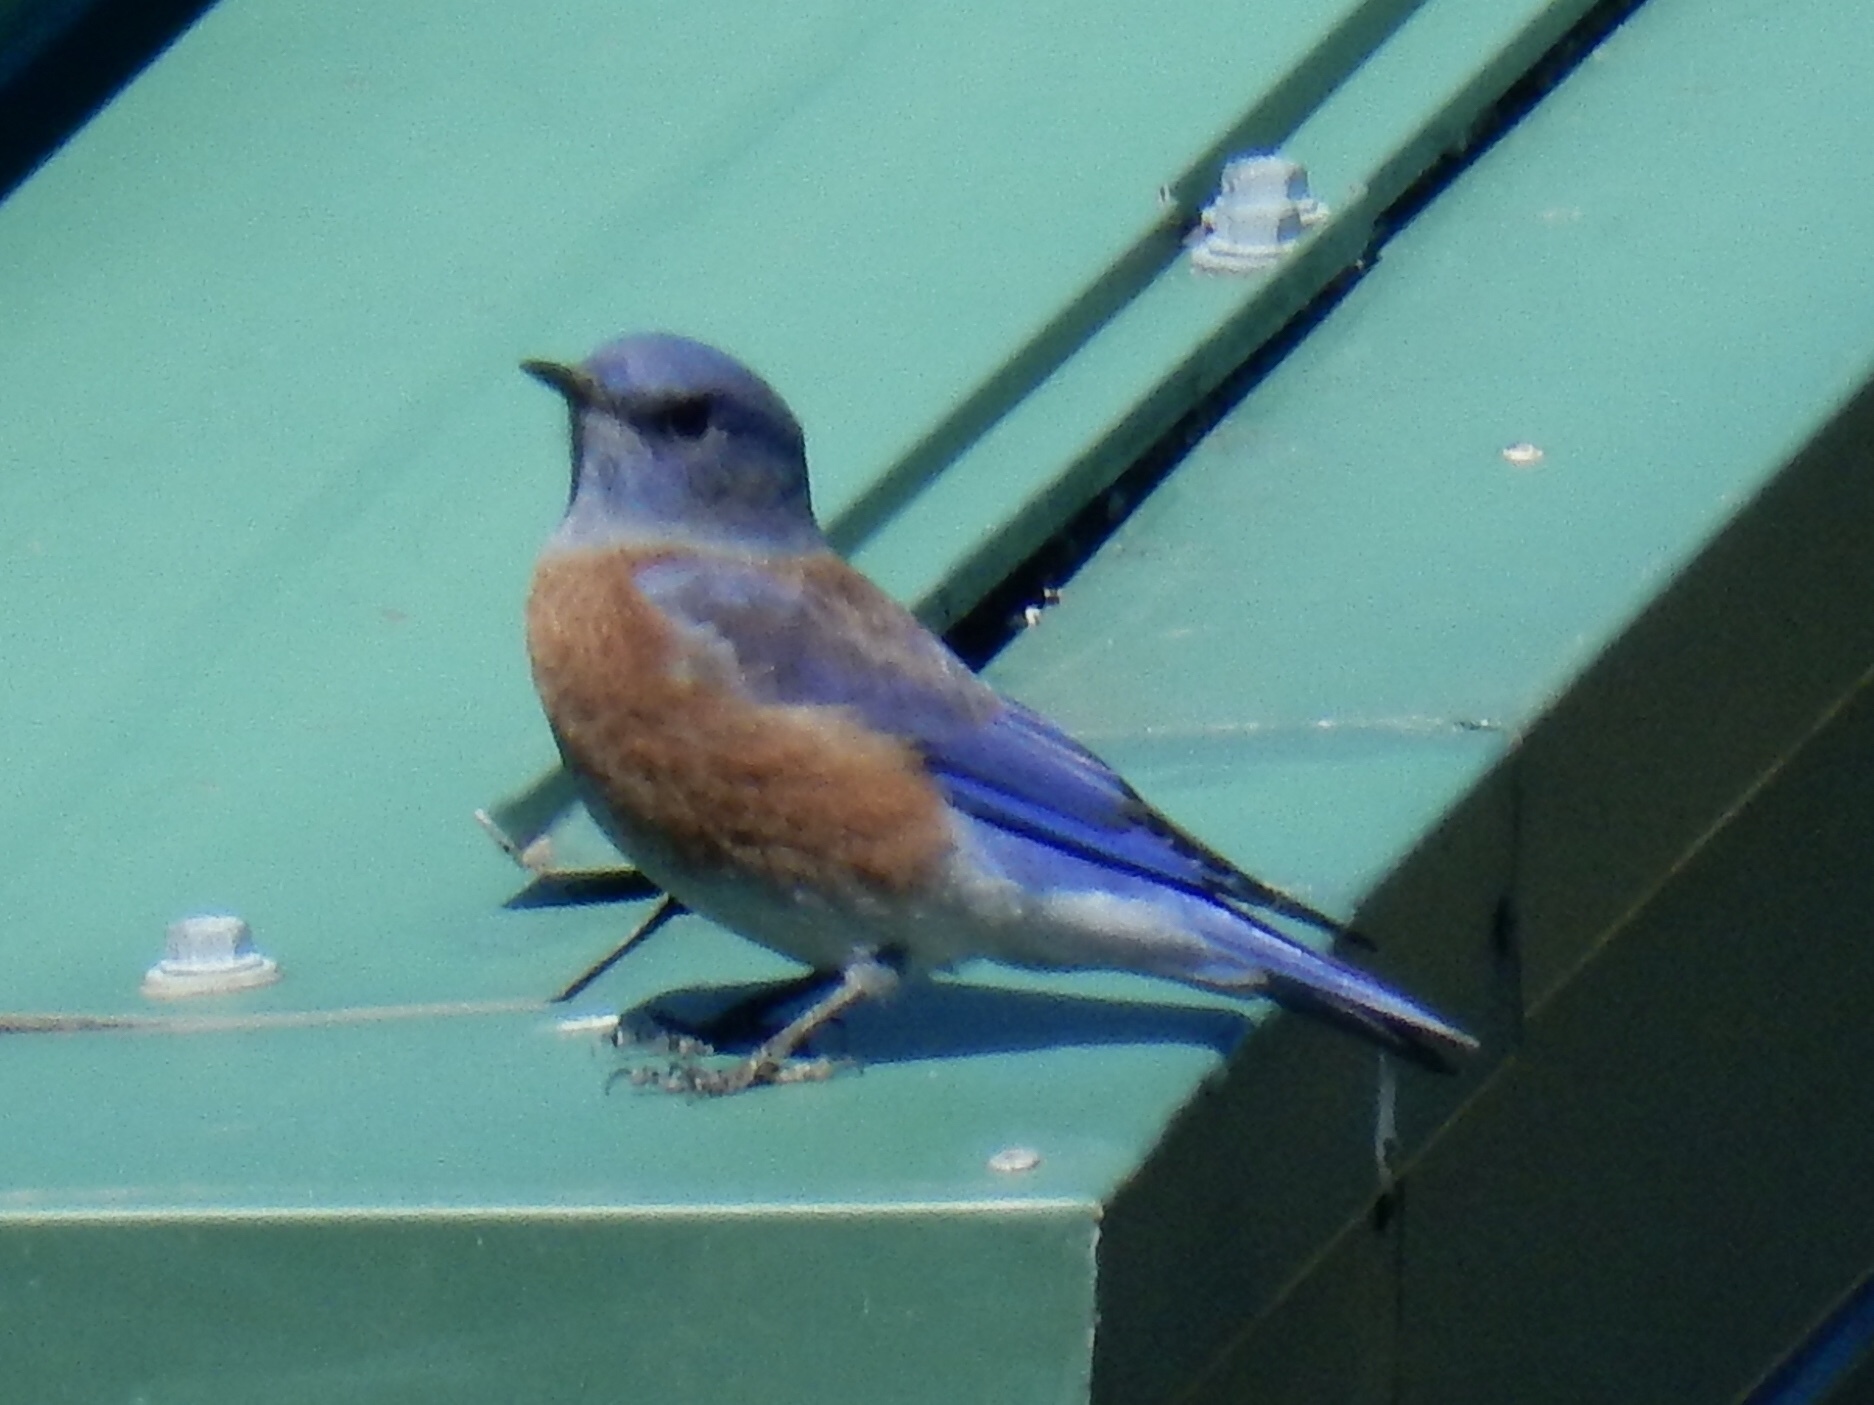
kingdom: Animalia
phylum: Chordata
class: Aves
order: Passeriformes
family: Turdidae
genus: Sialia
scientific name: Sialia mexicana
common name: Western bluebird
